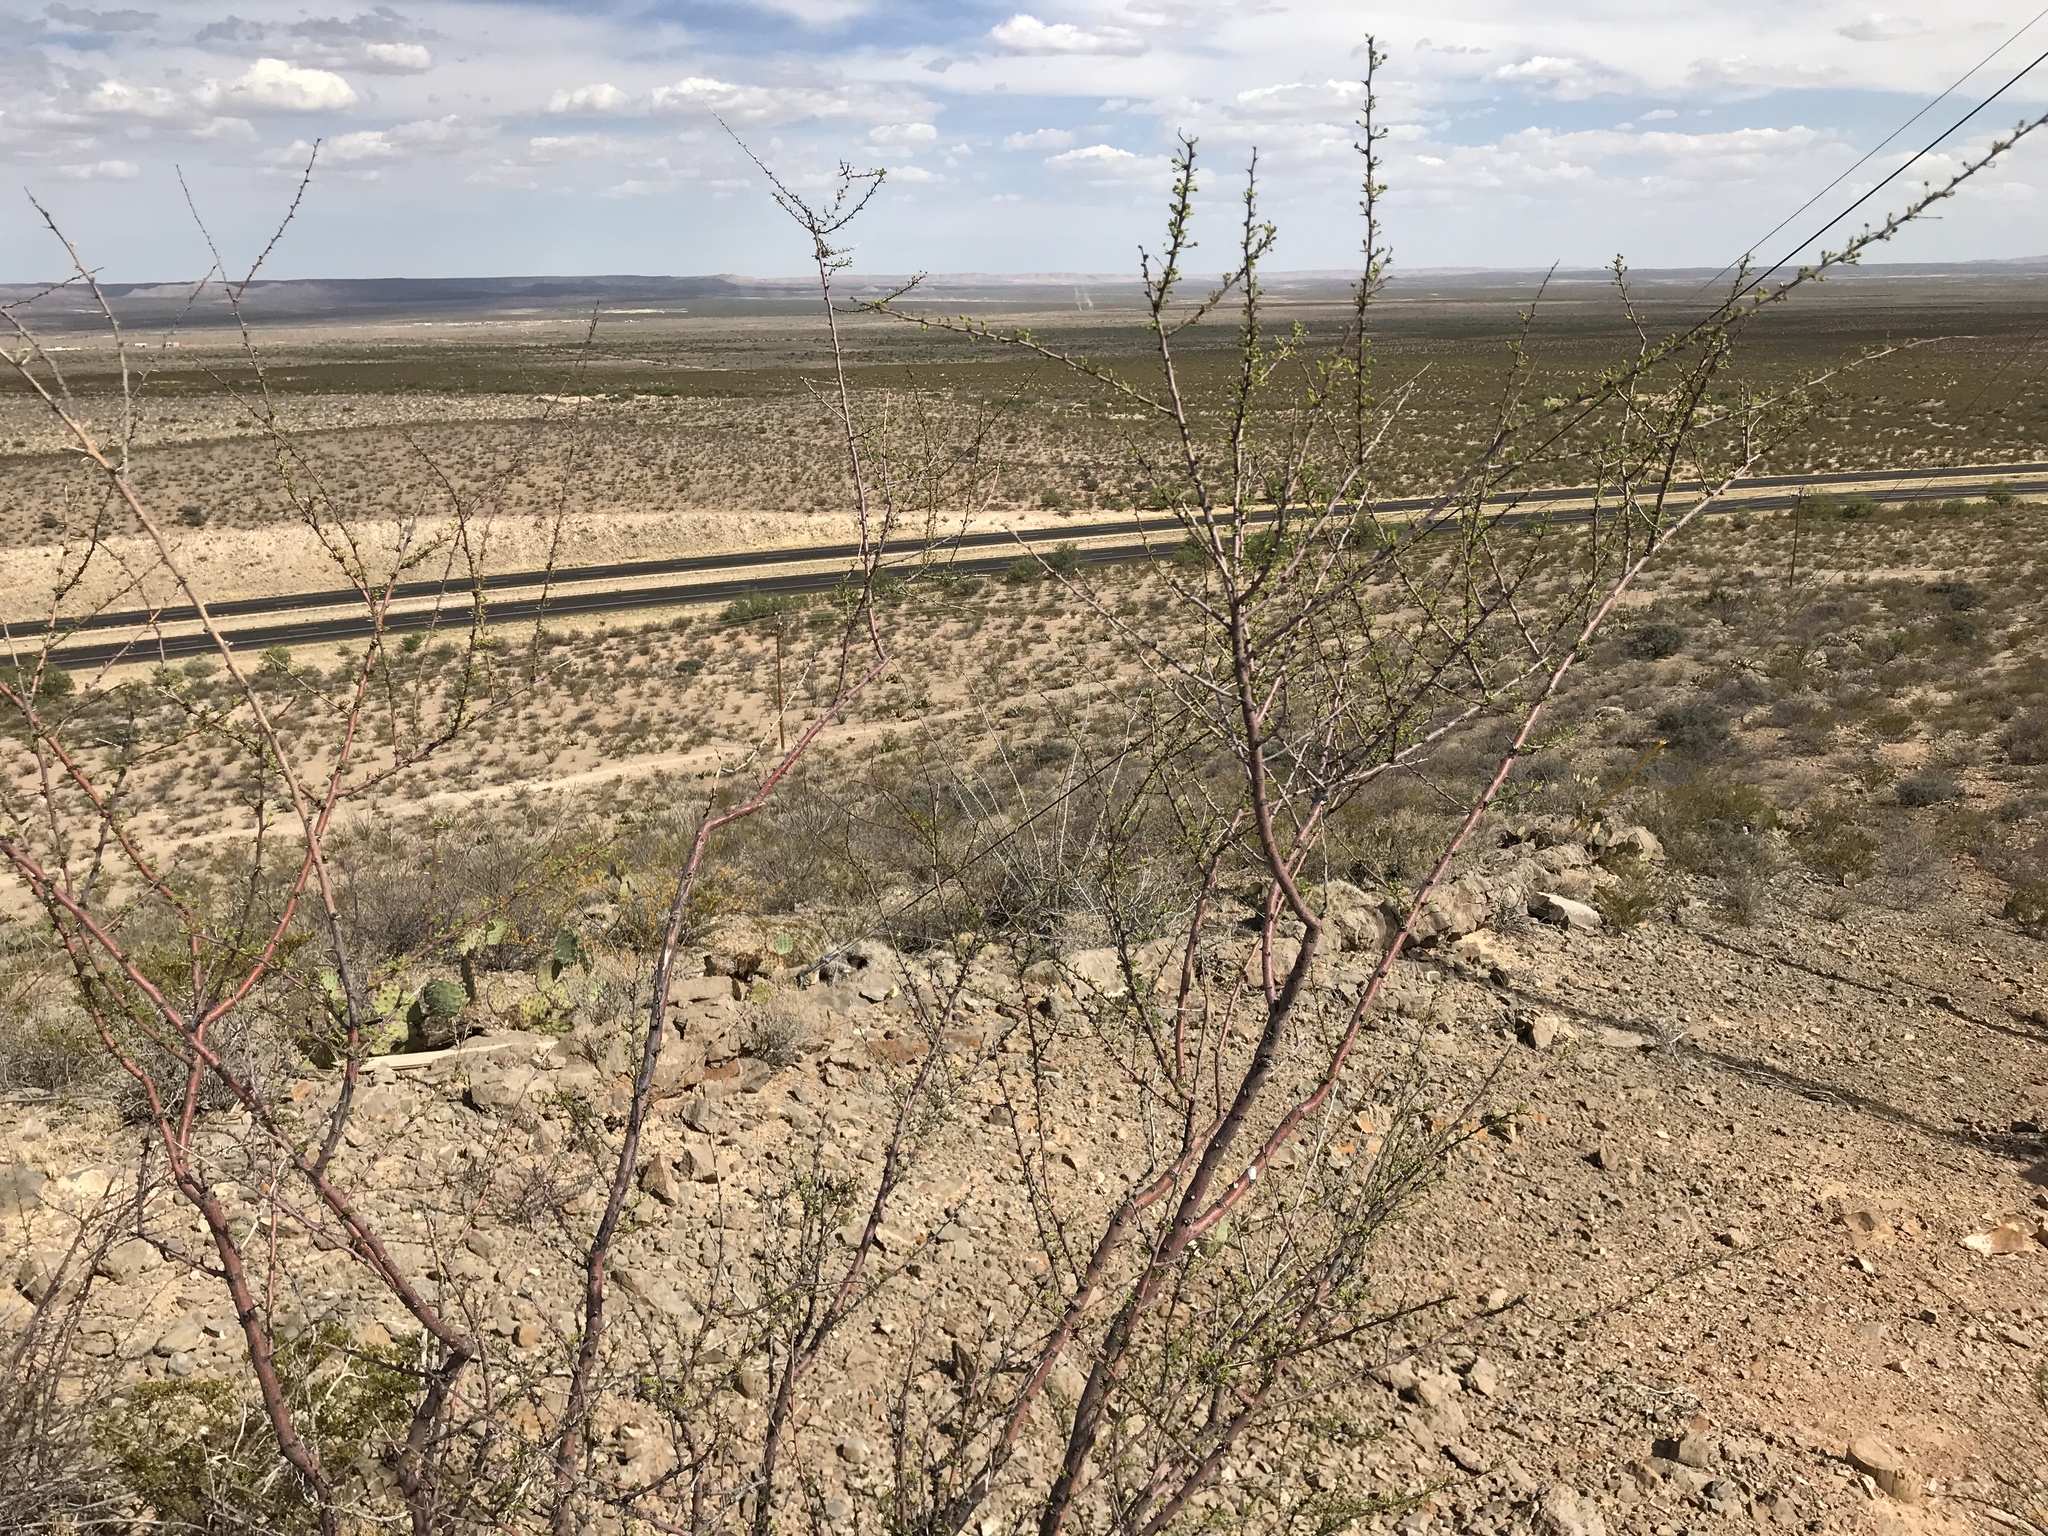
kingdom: Plantae
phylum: Tracheophyta
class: Magnoliopsida
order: Fabales
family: Fabaceae
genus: Vachellia
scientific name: Vachellia vernicosa
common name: Viscid acacia
